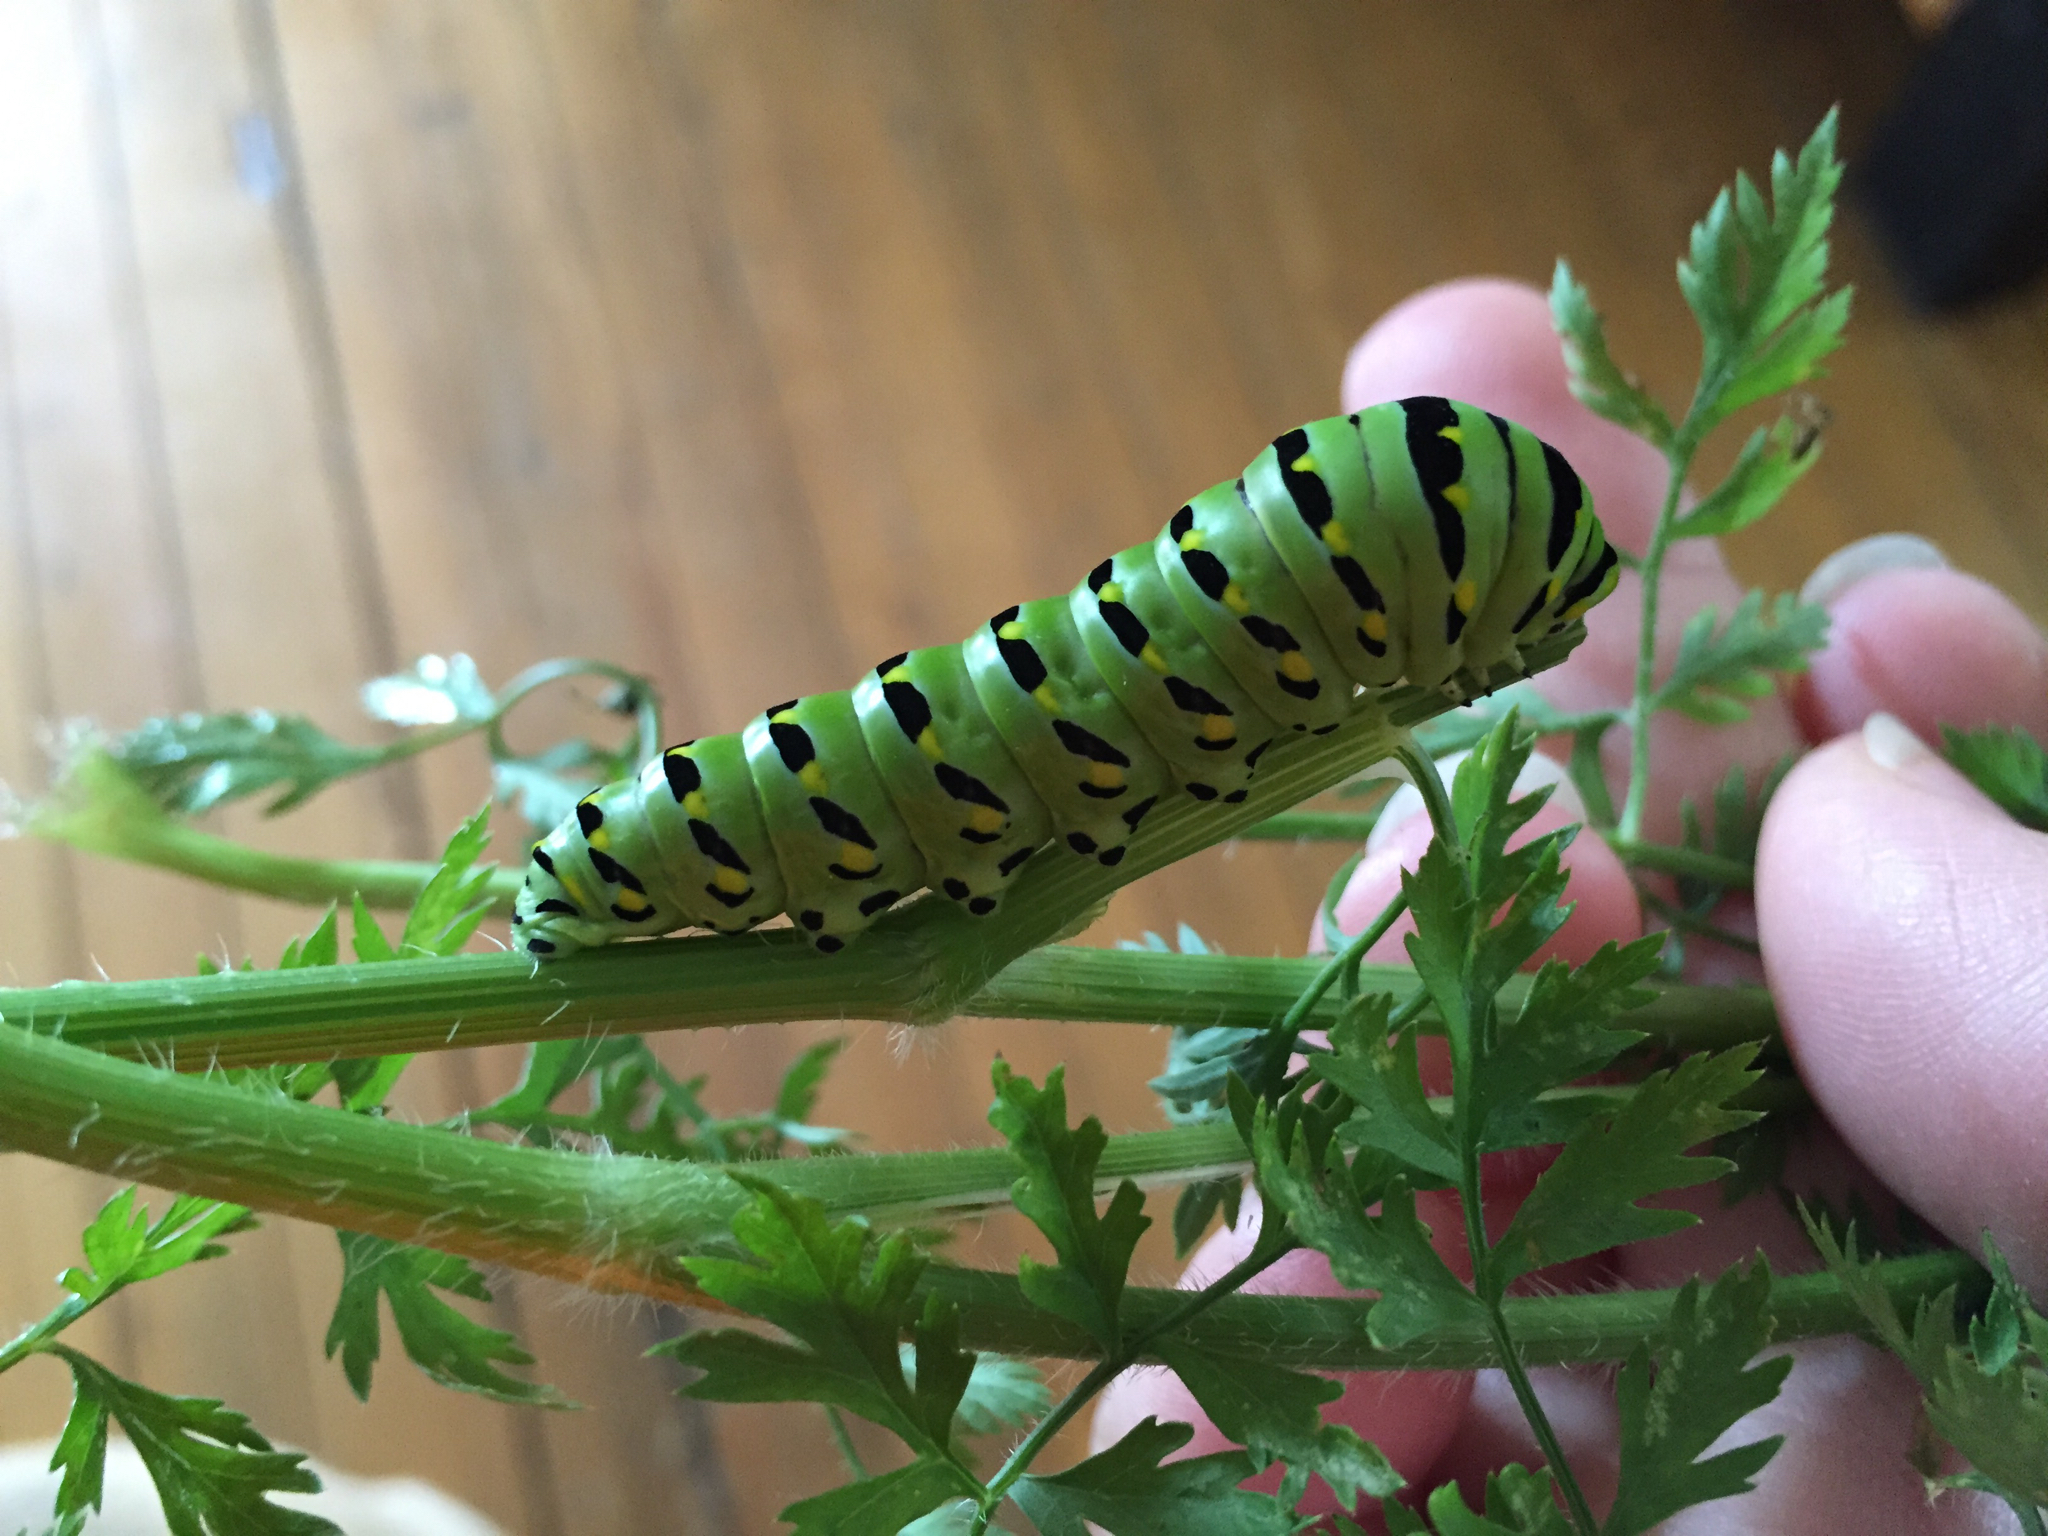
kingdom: Animalia
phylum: Arthropoda
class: Insecta
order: Lepidoptera
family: Papilionidae
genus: Papilio
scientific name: Papilio polyxenes
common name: Black swallowtail
